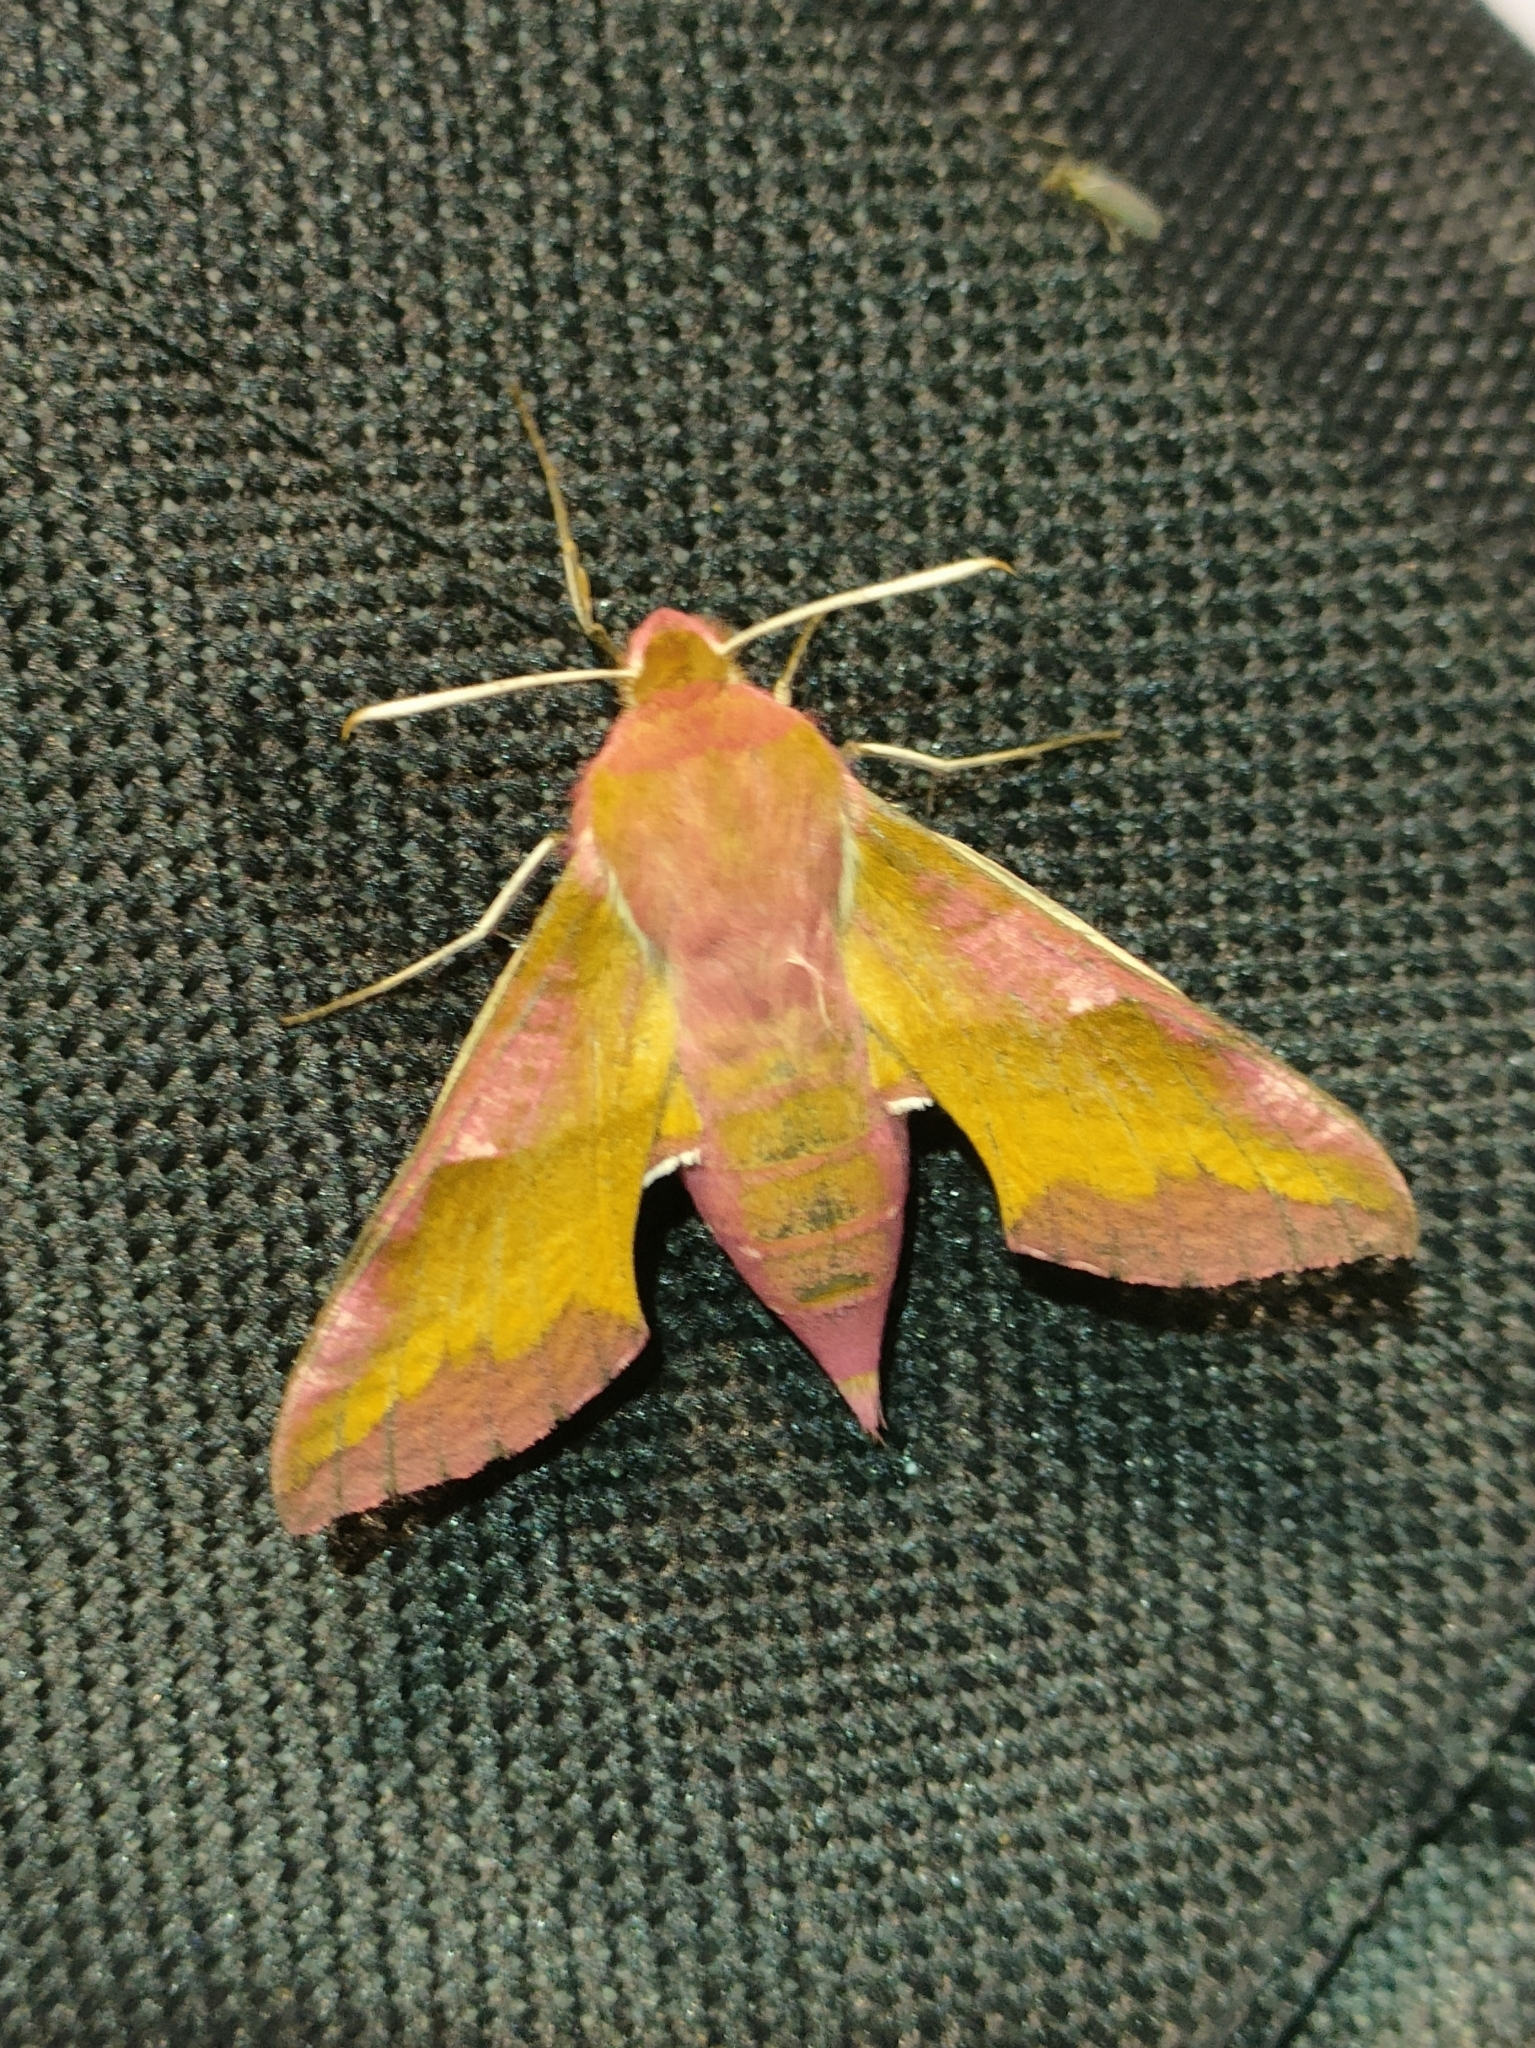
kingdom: Animalia
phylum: Arthropoda
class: Insecta
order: Lepidoptera
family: Sphingidae
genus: Deilephila
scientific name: Deilephila porcellus
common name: Small elephant hawk-moth
